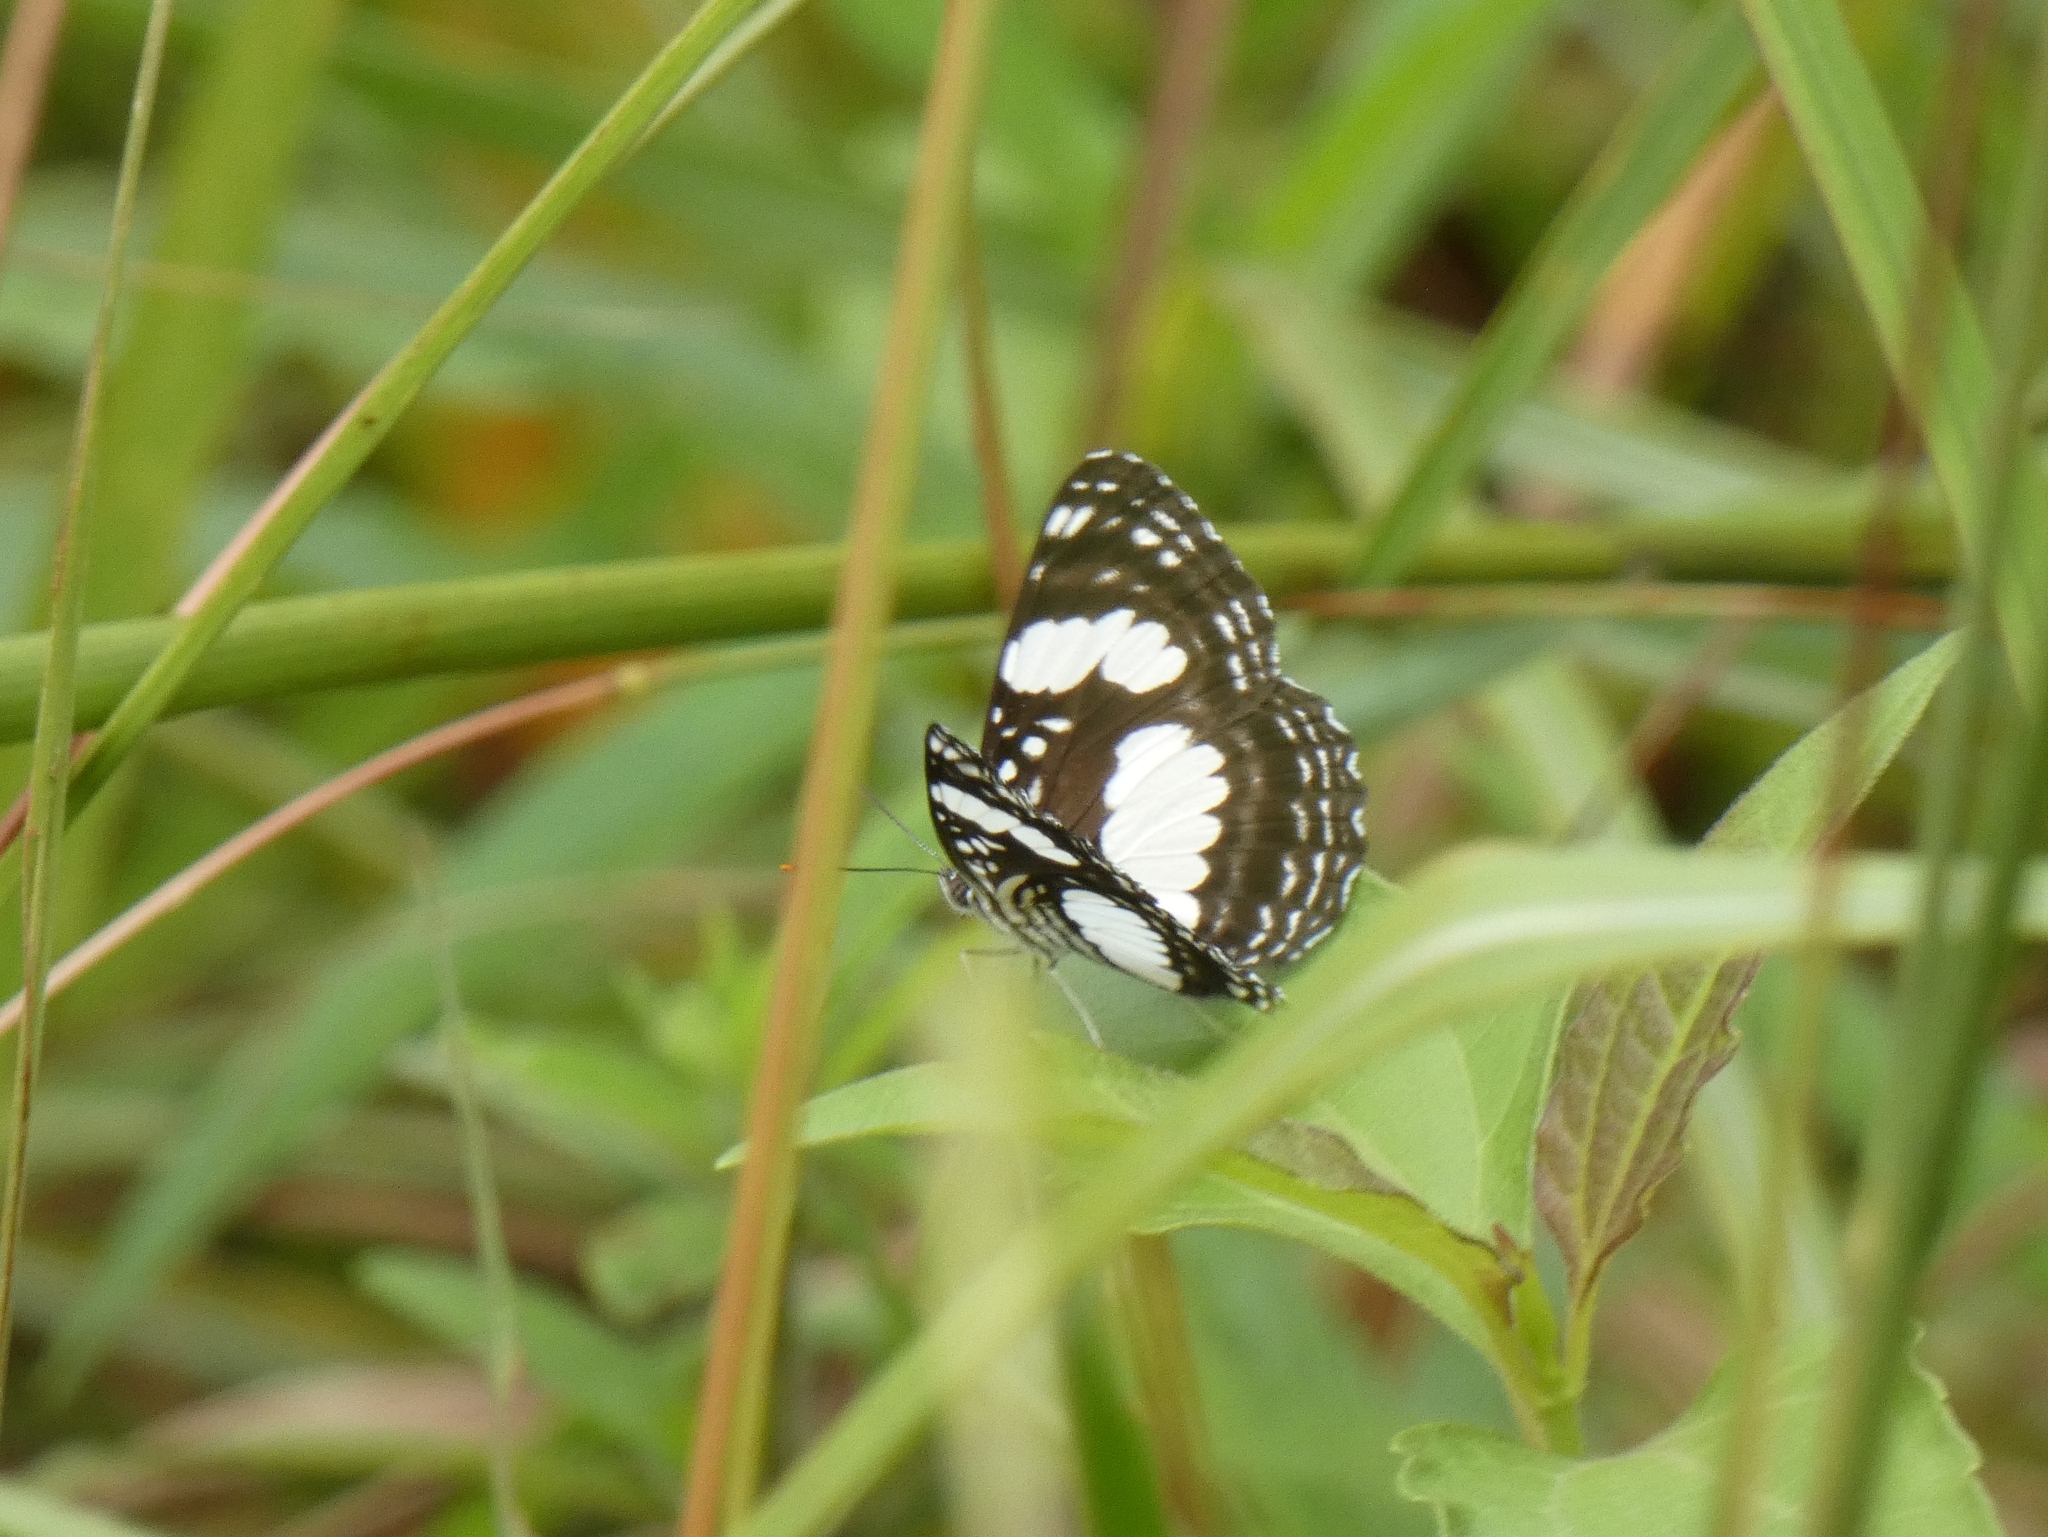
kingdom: Animalia
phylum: Arthropoda
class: Insecta
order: Lepidoptera
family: Nymphalidae
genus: Neptis
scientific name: Neptis morosa
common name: Savanna sailer
